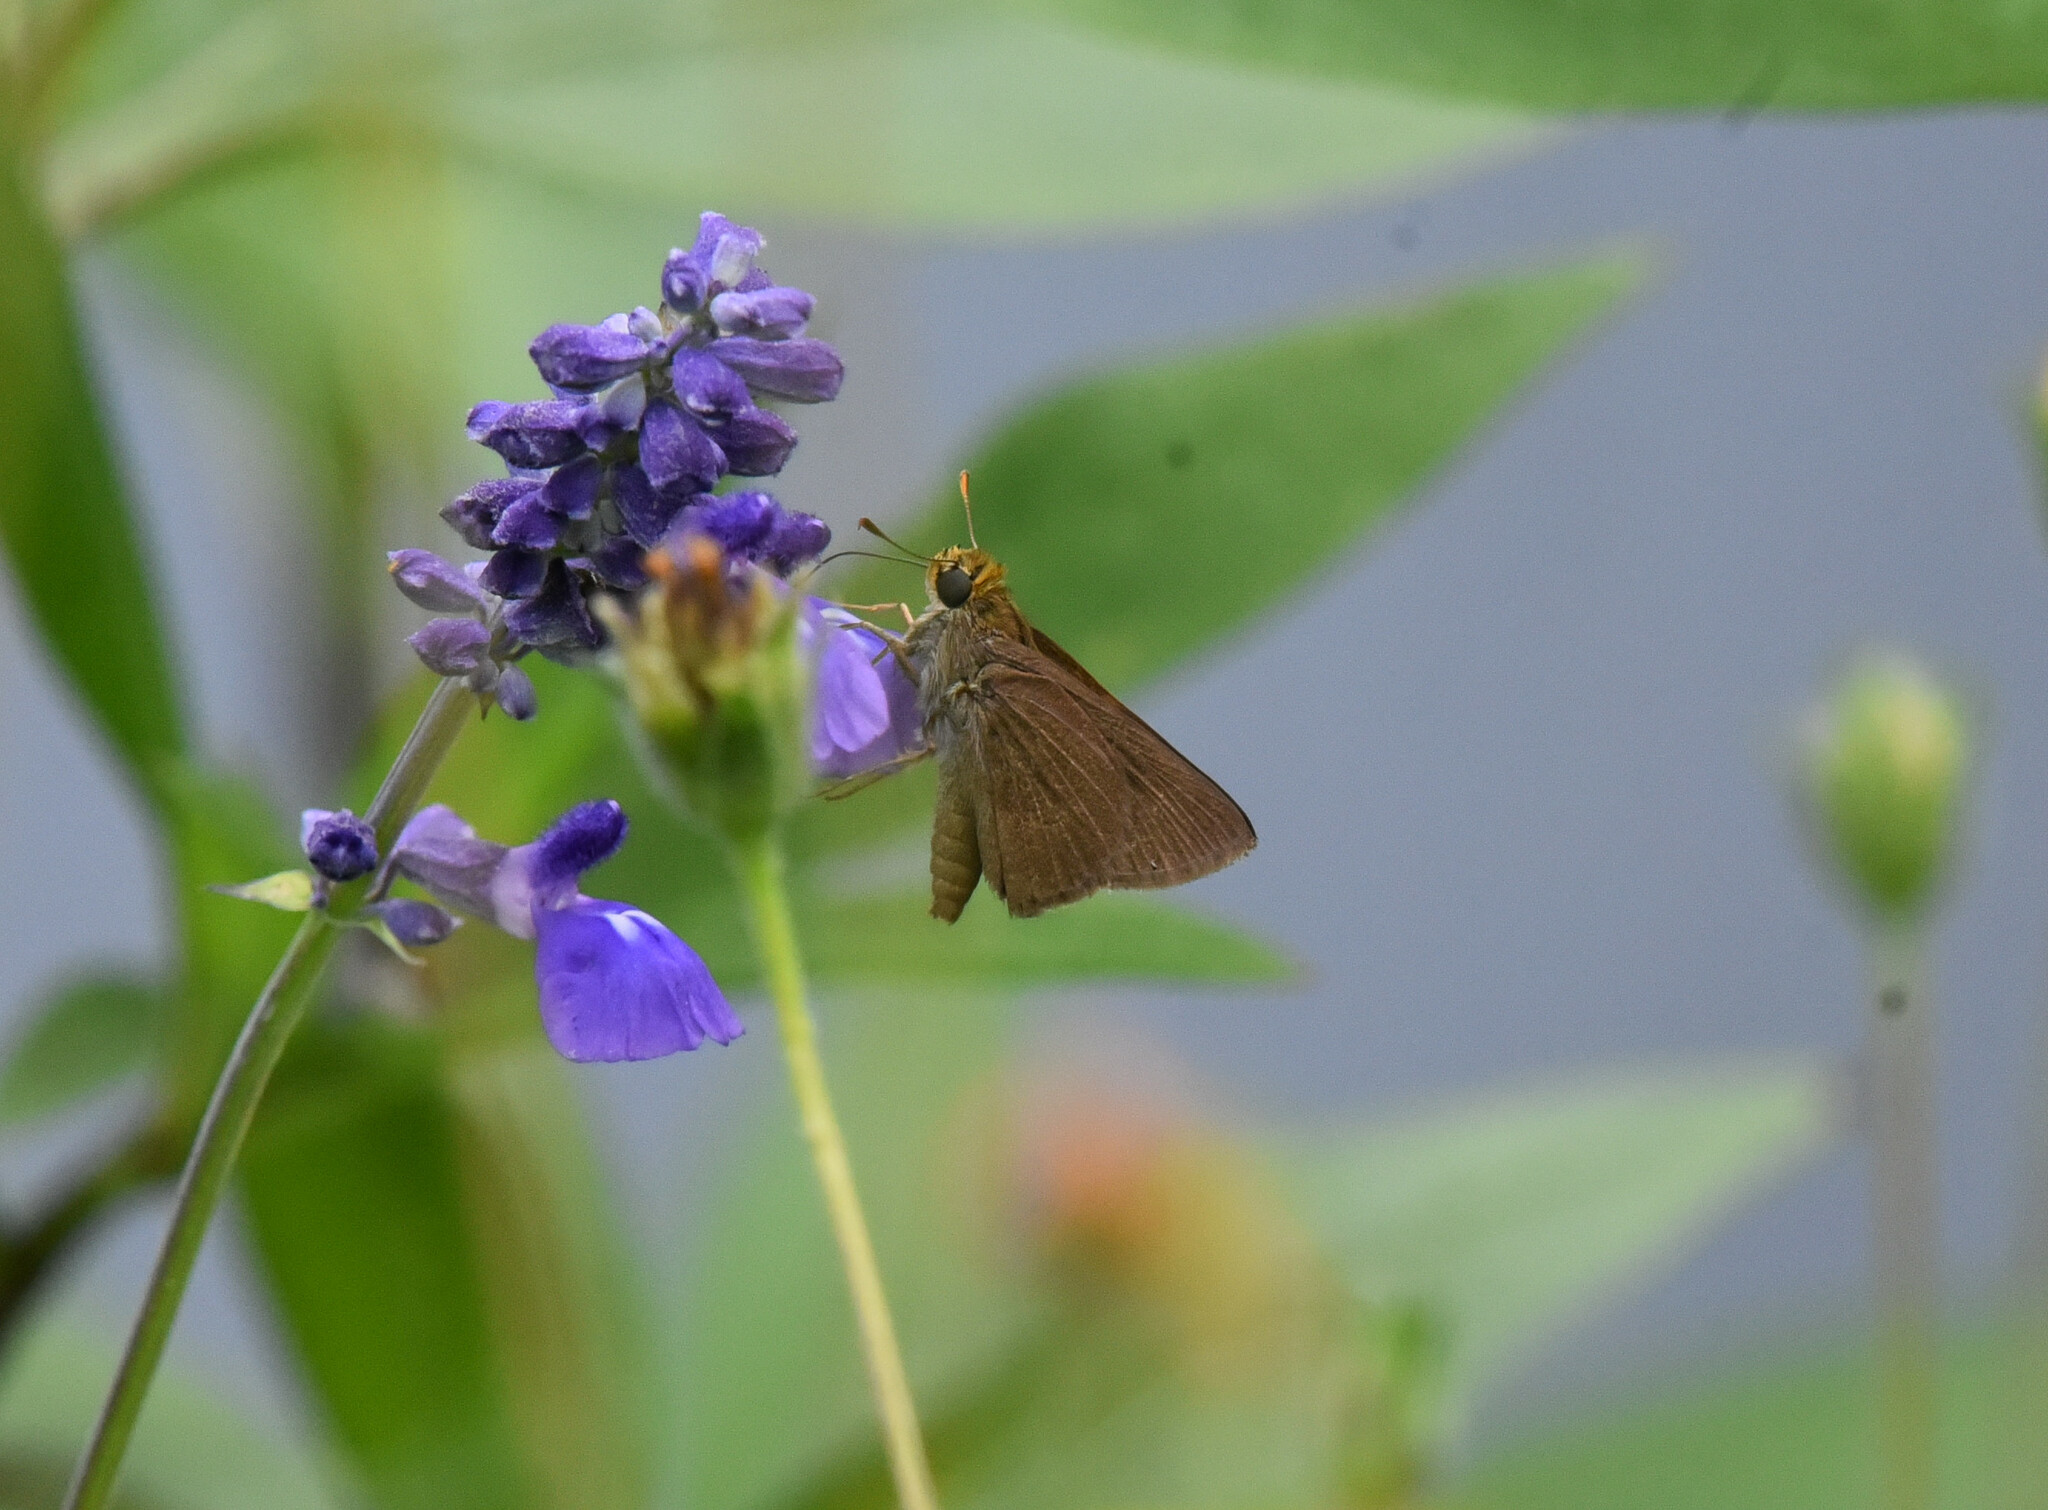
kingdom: Animalia
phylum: Arthropoda
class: Insecta
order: Lepidoptera
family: Hesperiidae
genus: Euphyes
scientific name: Euphyes vestris
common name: Dun skipper
